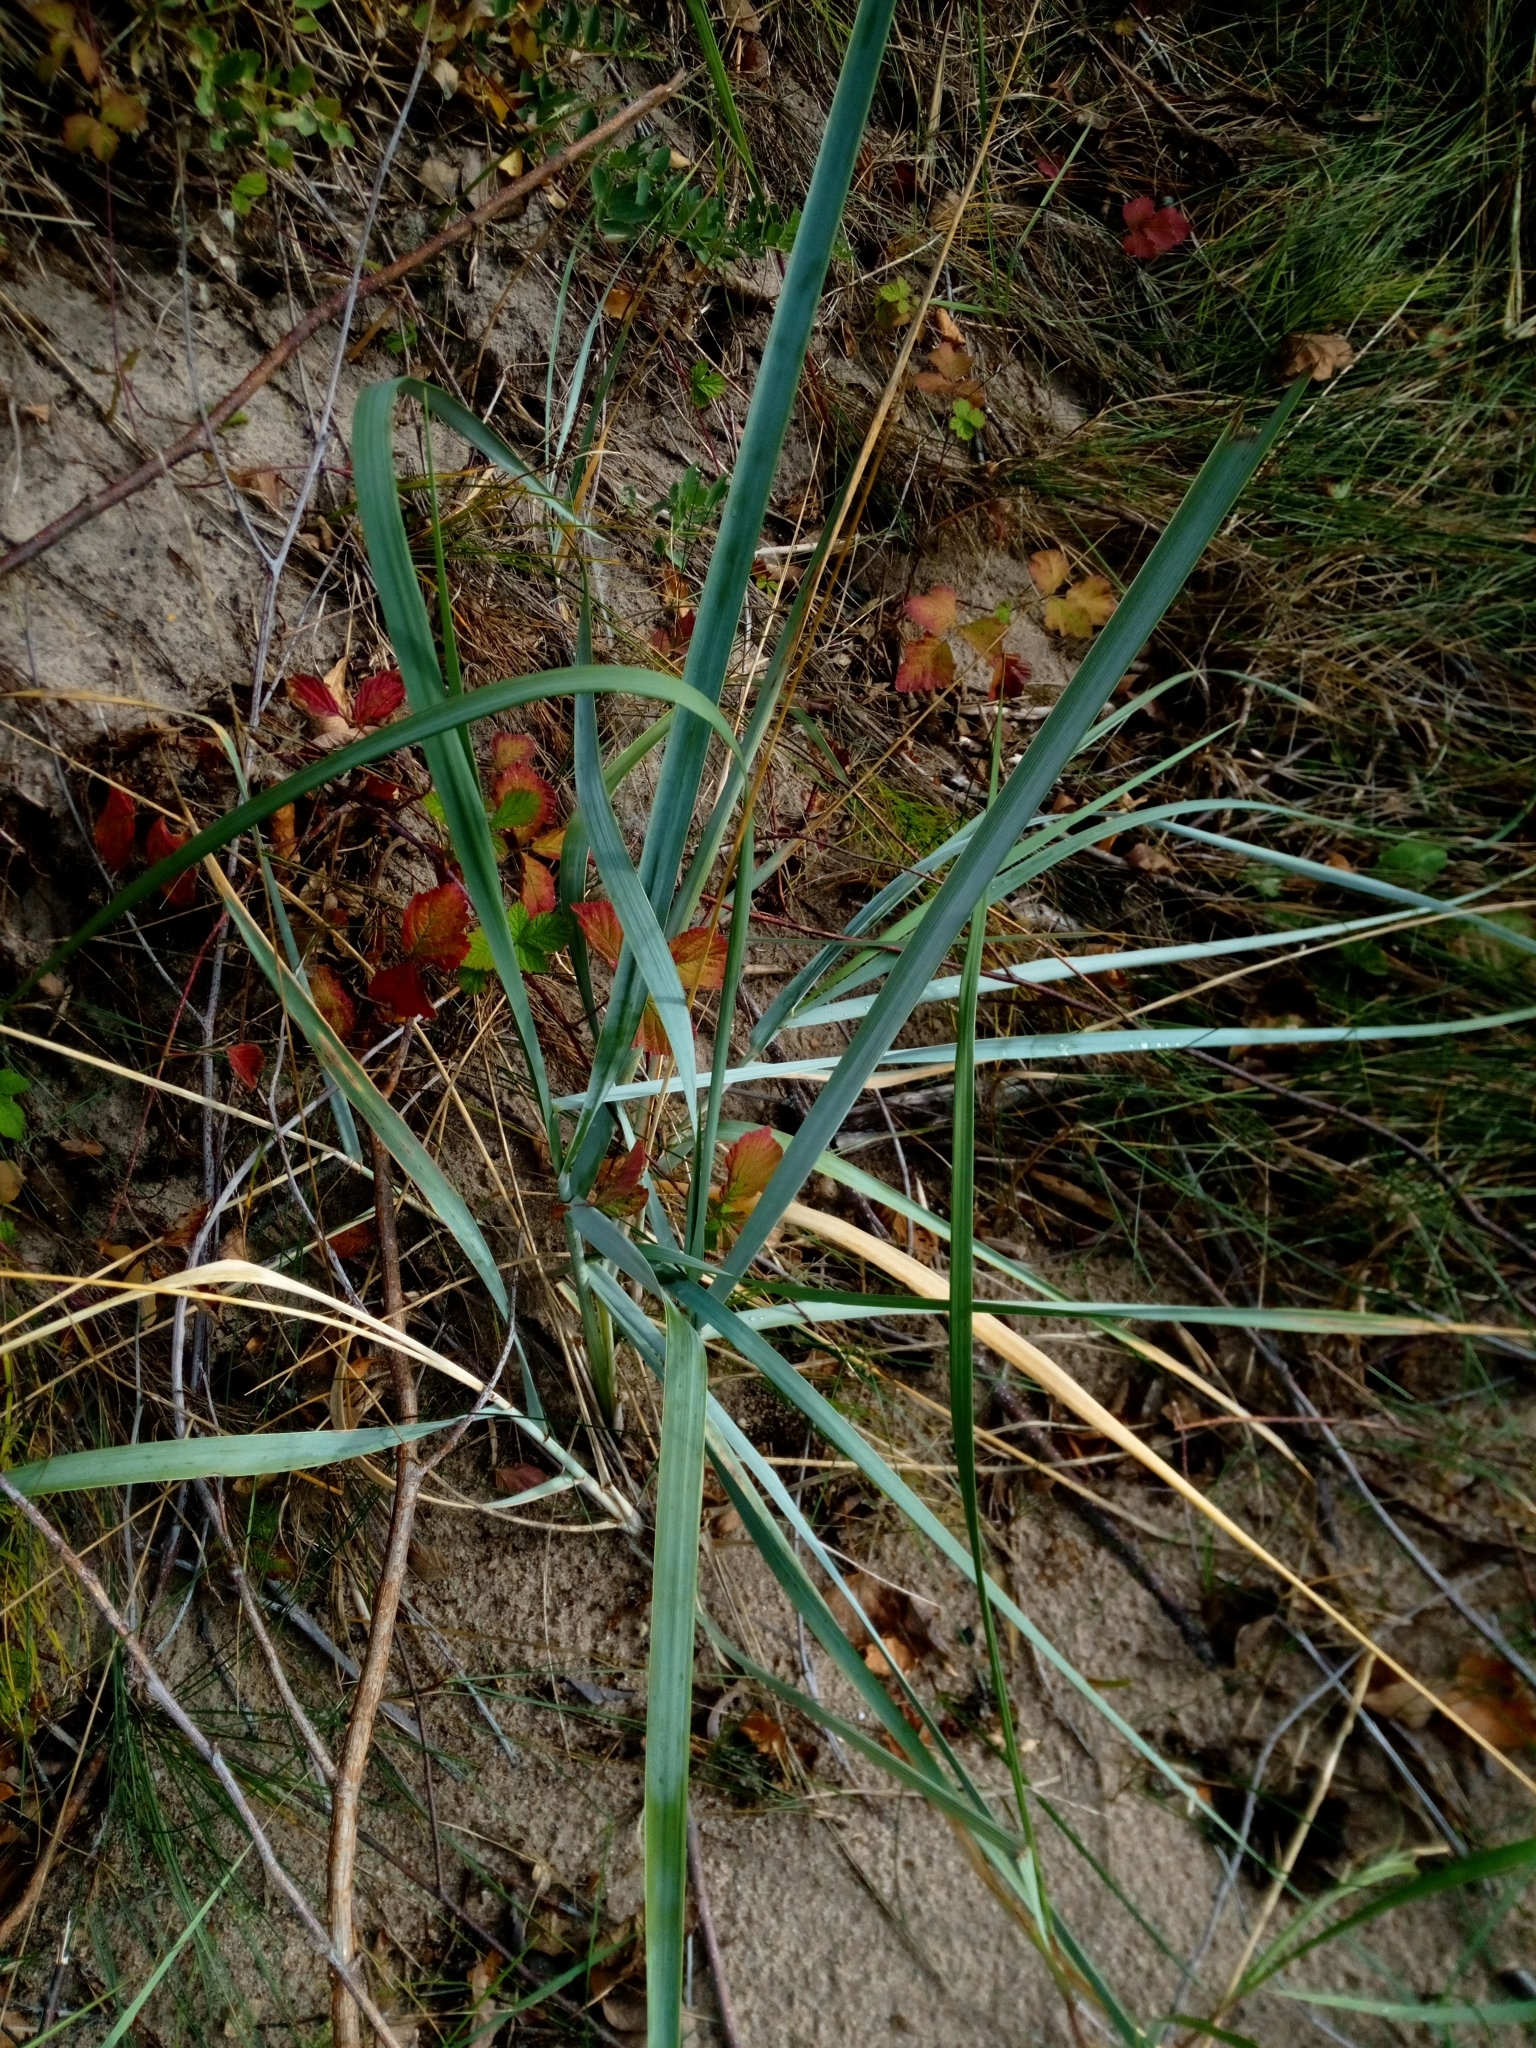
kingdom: Plantae
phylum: Tracheophyta
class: Liliopsida
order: Poales
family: Poaceae
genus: Leymus
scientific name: Leymus arenarius
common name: Lyme-grass
